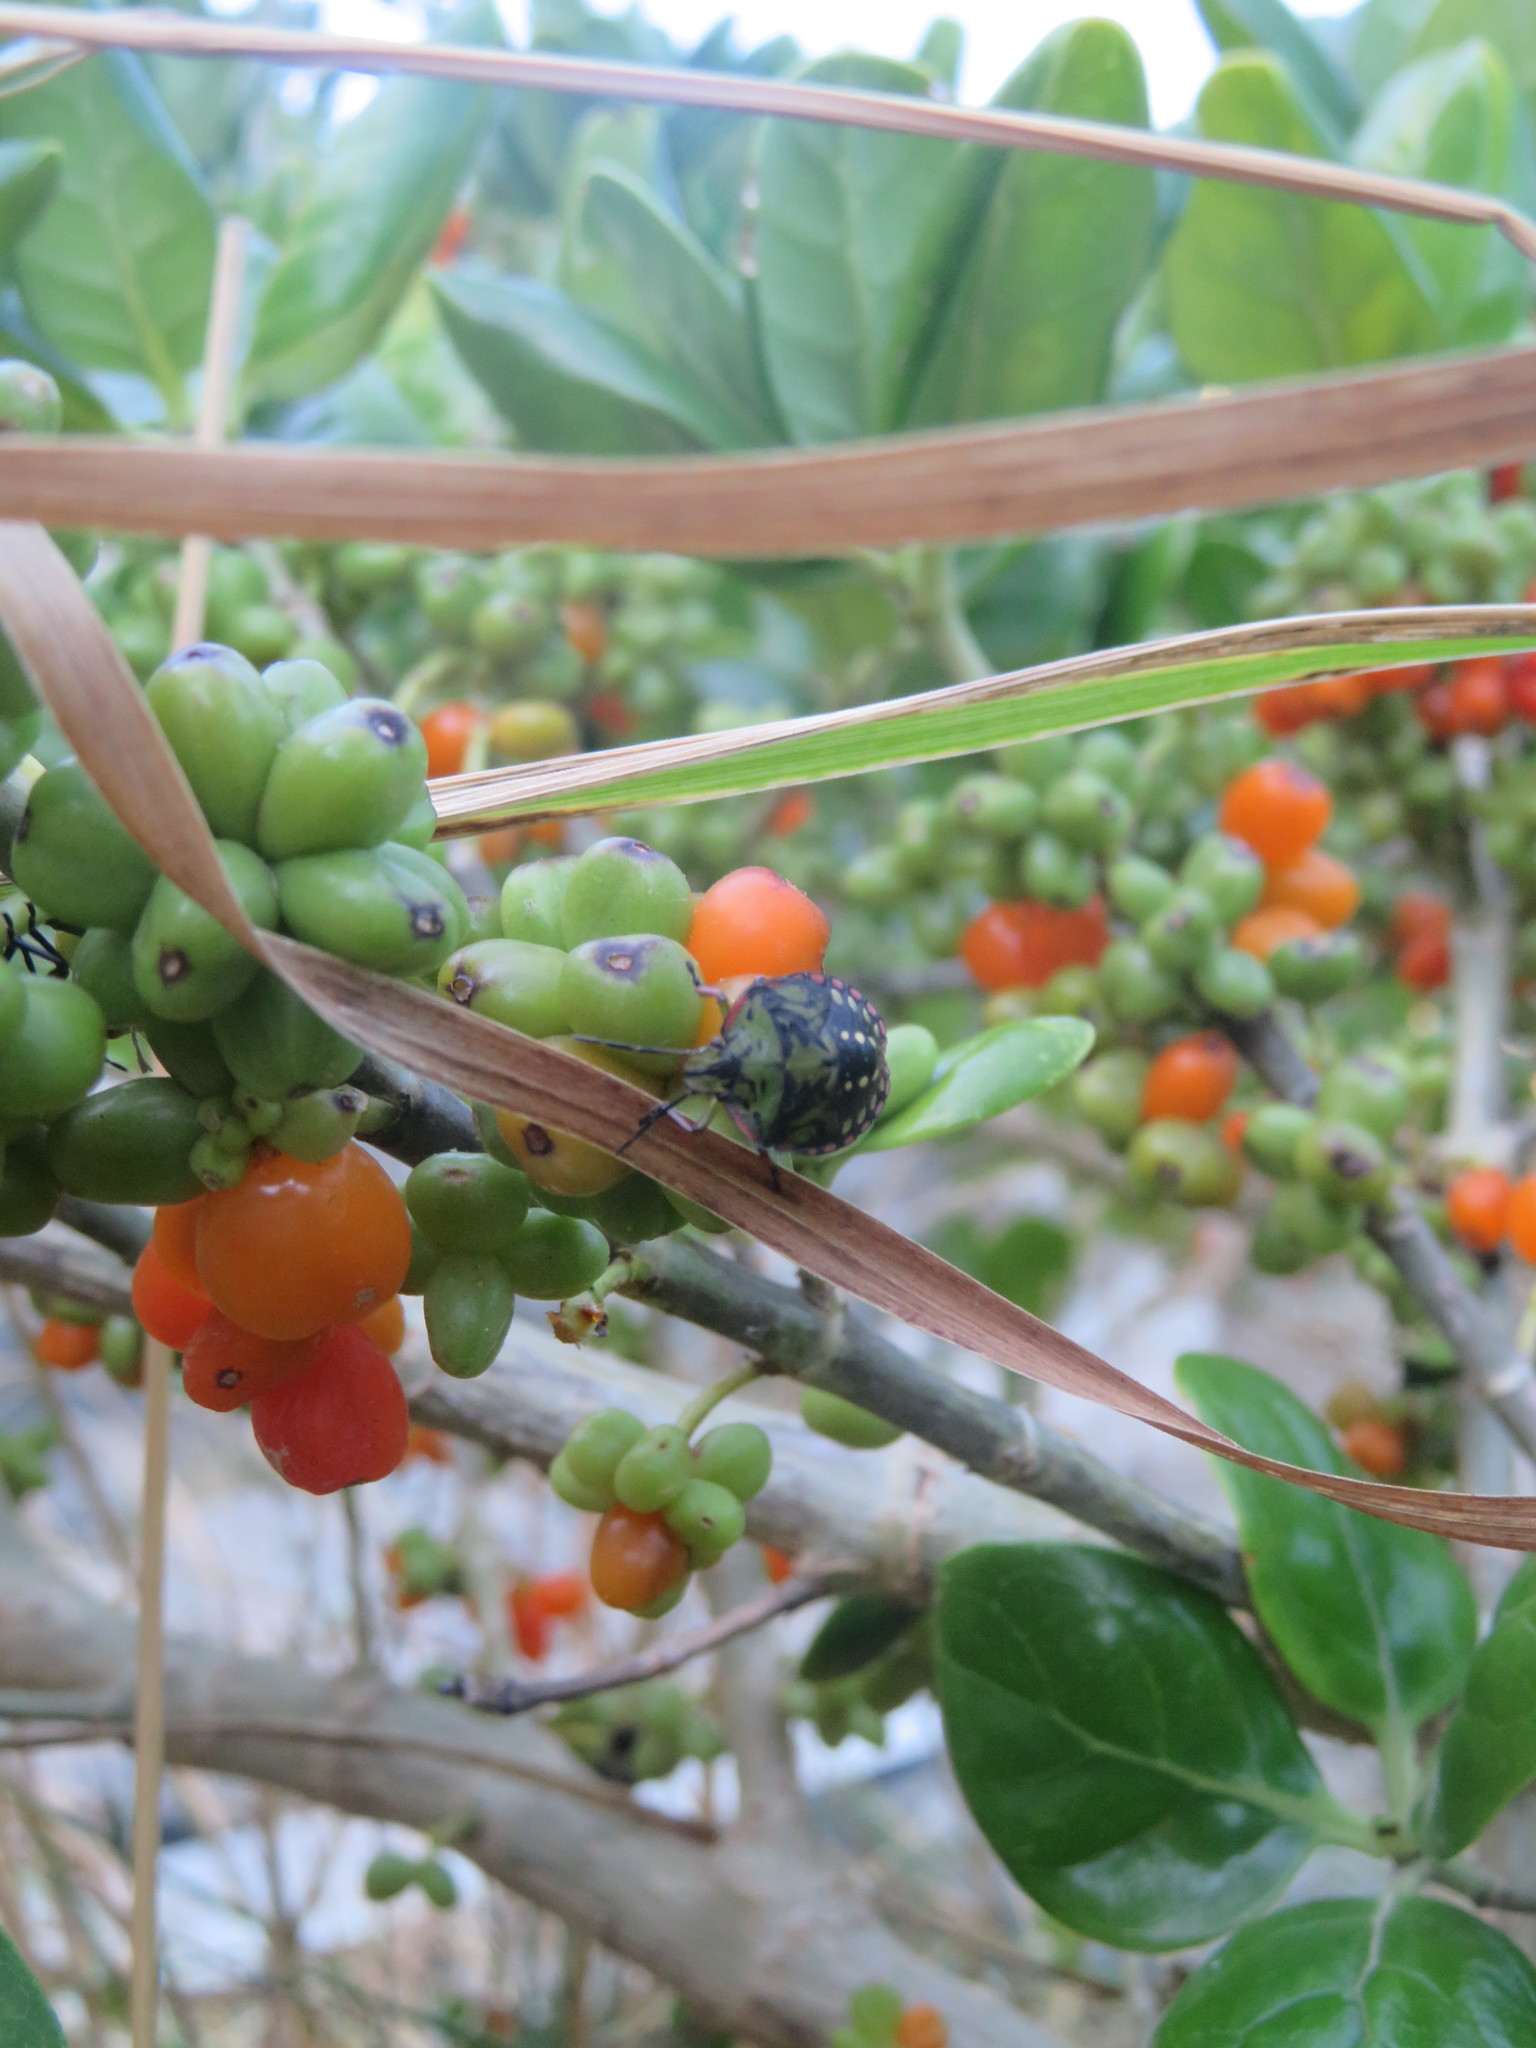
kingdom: Animalia
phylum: Arthropoda
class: Insecta
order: Hemiptera
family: Pentatomidae
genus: Nezara
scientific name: Nezara viridula
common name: Southern green stink bug
